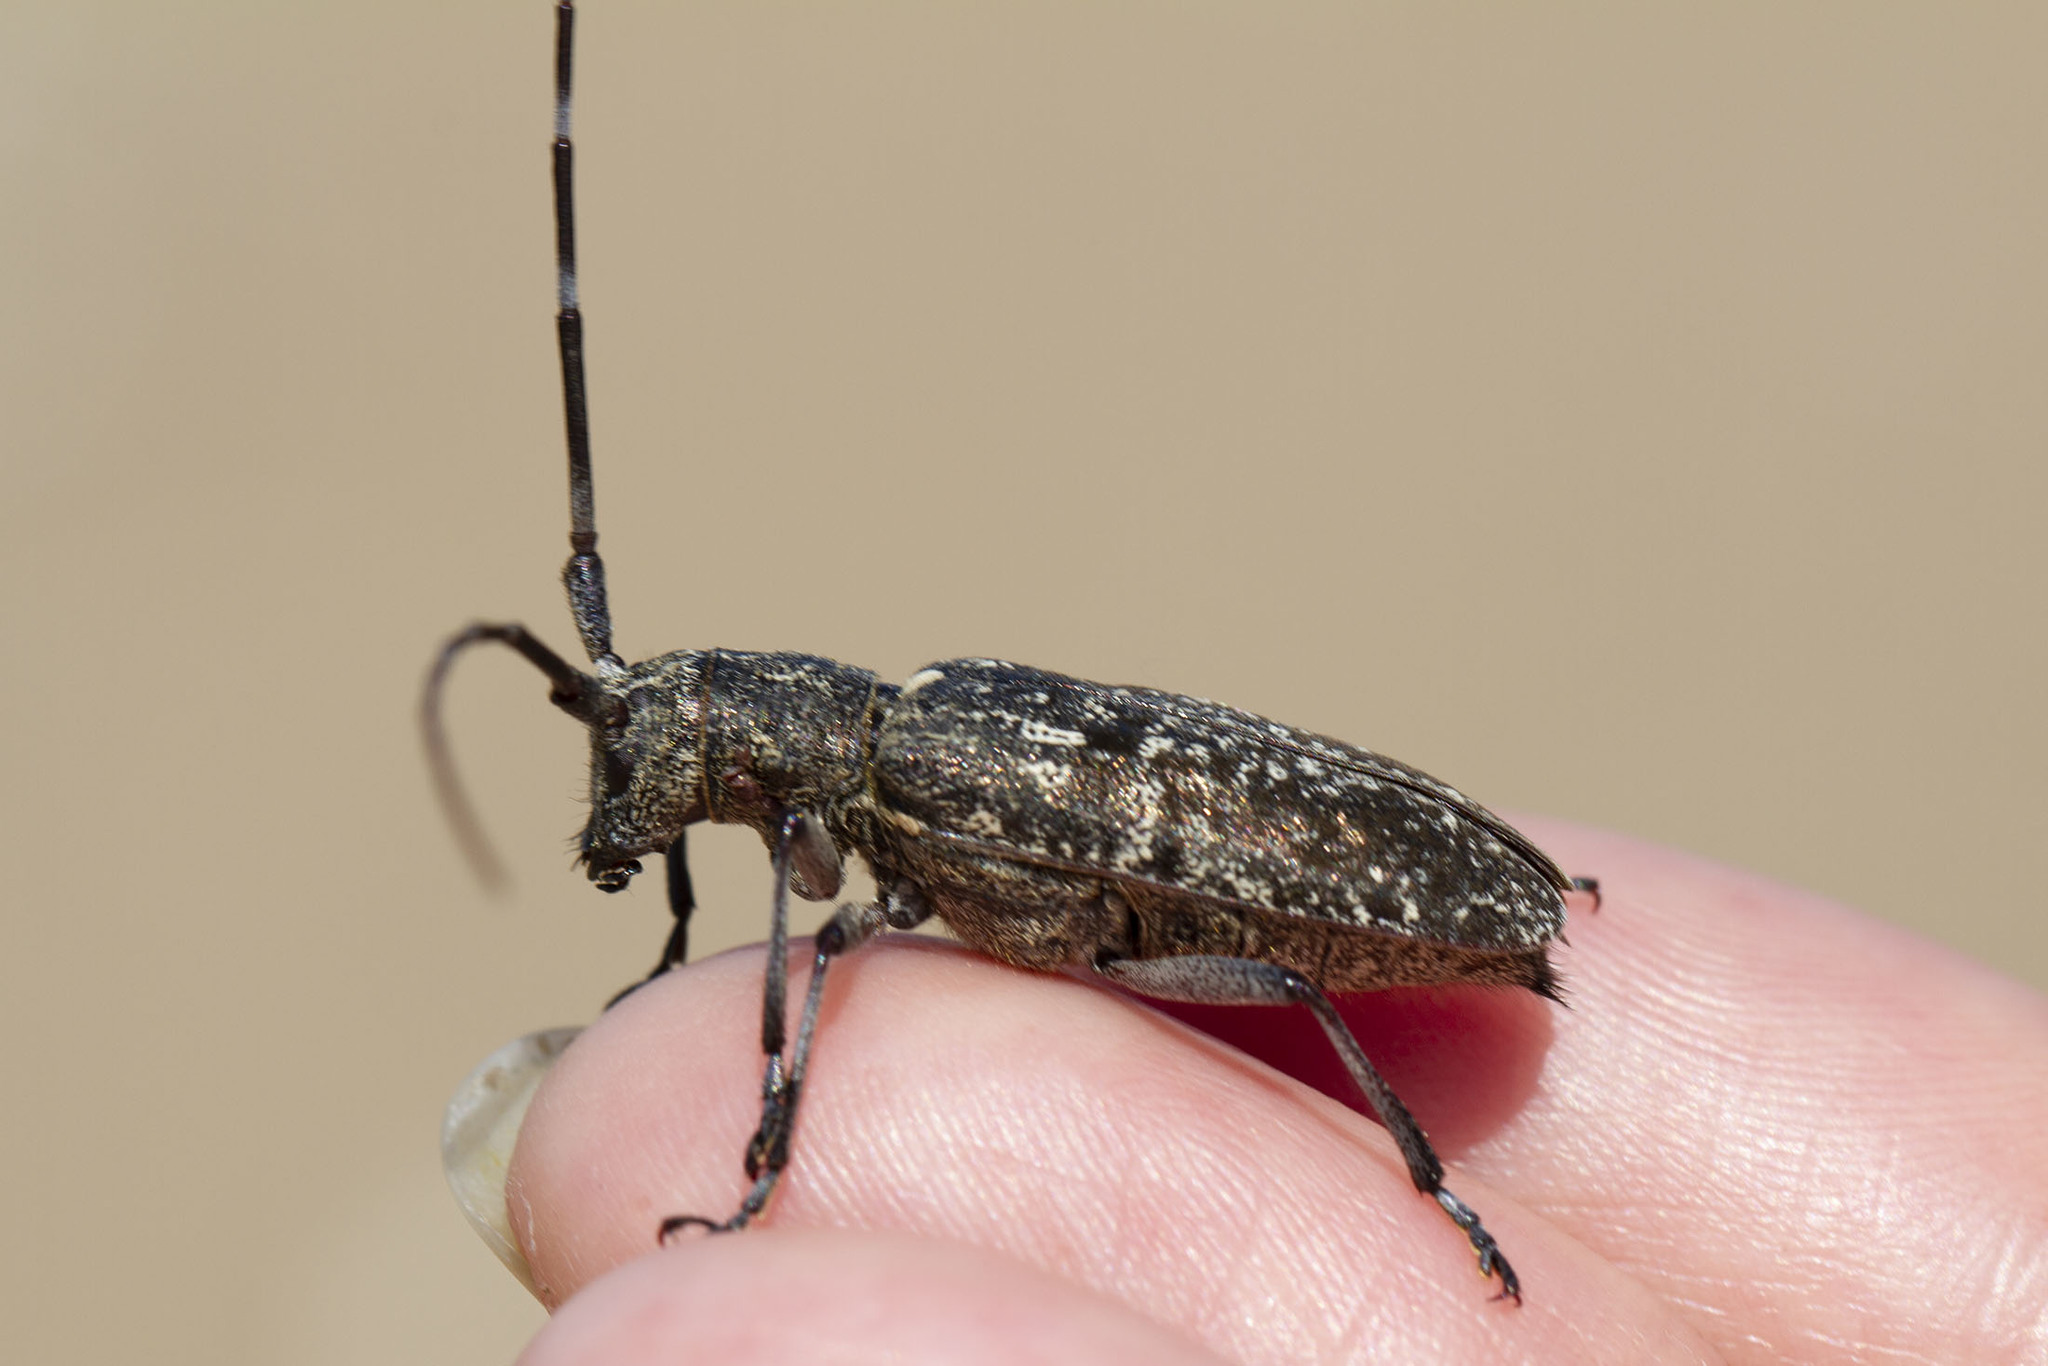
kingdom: Animalia
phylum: Arthropoda
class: Insecta
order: Coleoptera
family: Cerambycidae
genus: Monochamus
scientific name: Monochamus scutellatus
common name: White-spotted sawyer beetle
